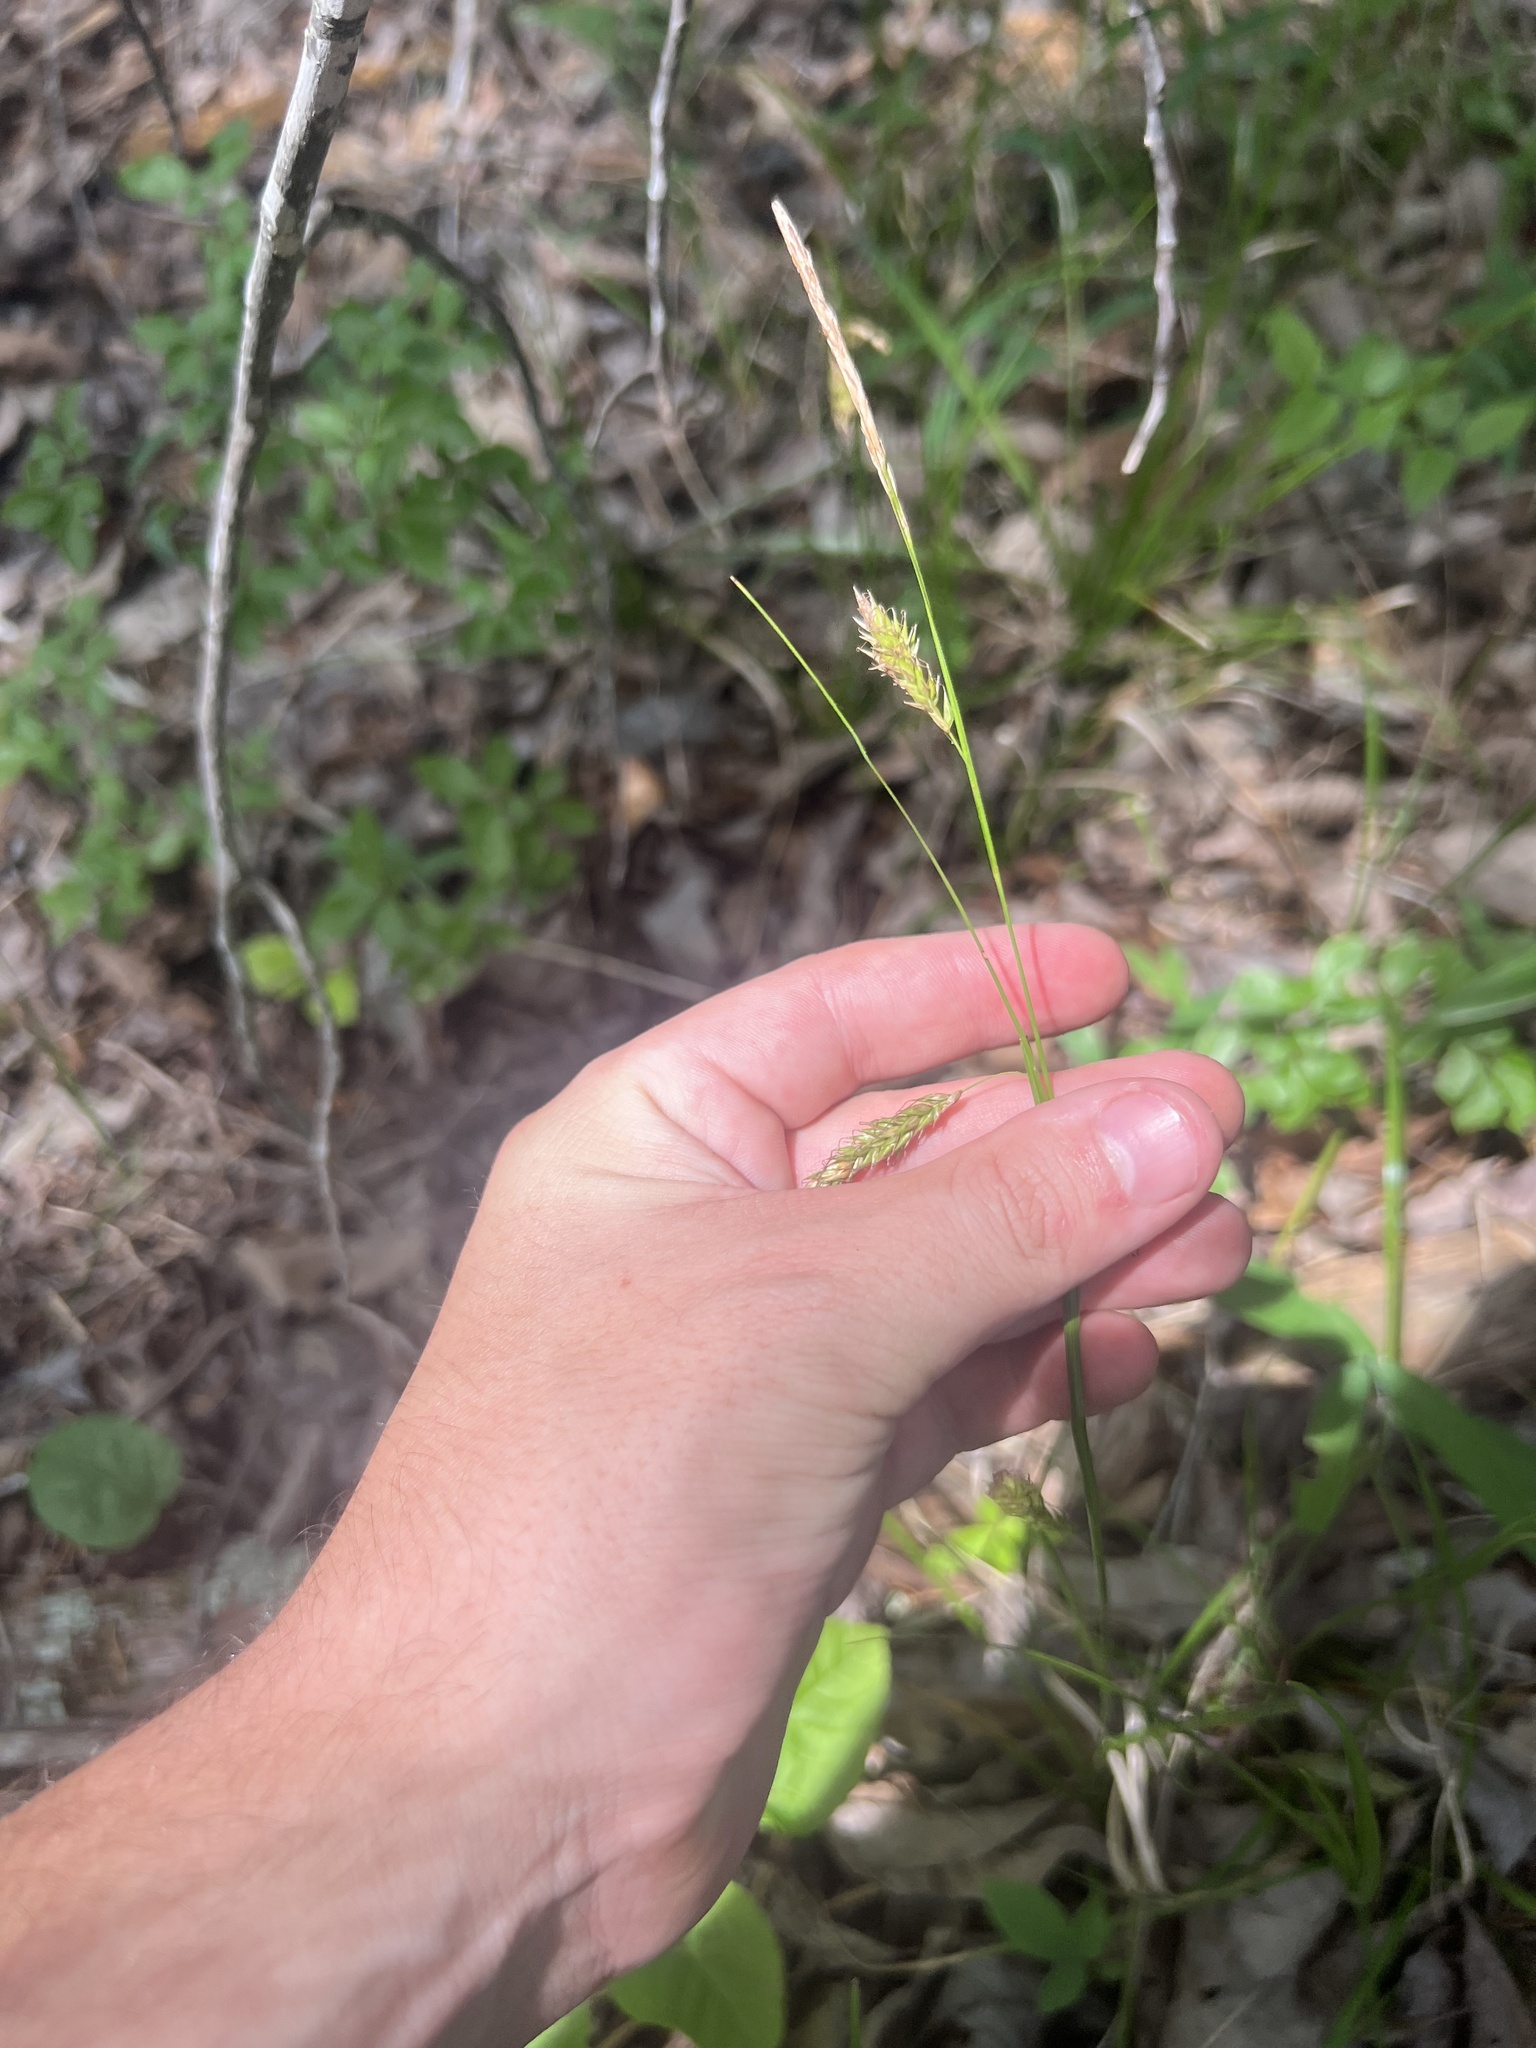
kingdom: Plantae
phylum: Tracheophyta
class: Liliopsida
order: Poales
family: Cyperaceae
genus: Carex
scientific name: Carex cherokeensis
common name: Cherokee sedge
